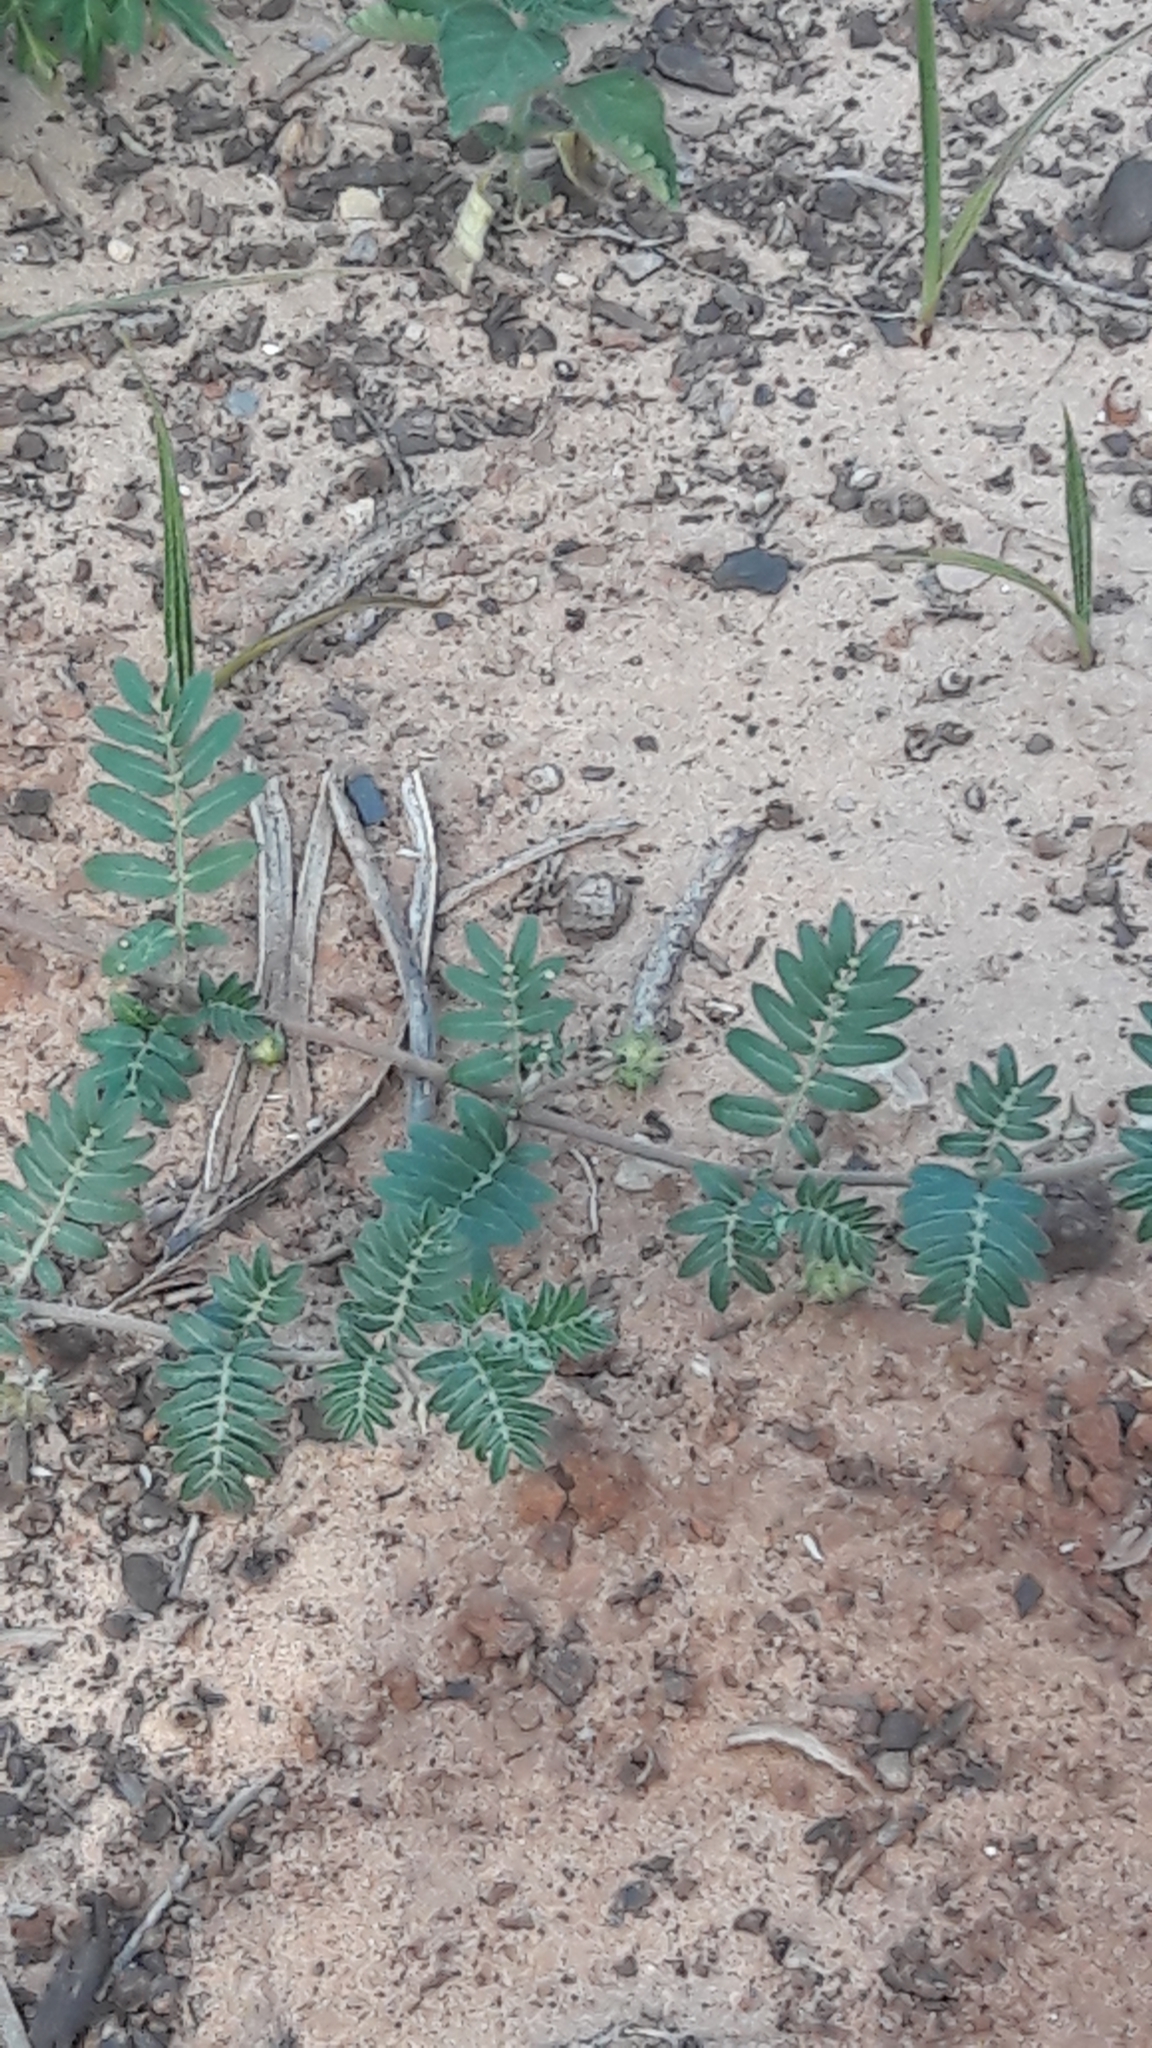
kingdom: Plantae
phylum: Tracheophyta
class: Magnoliopsida
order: Zygophyllales
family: Zygophyllaceae
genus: Tribulus
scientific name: Tribulus terrestris
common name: Puncturevine
